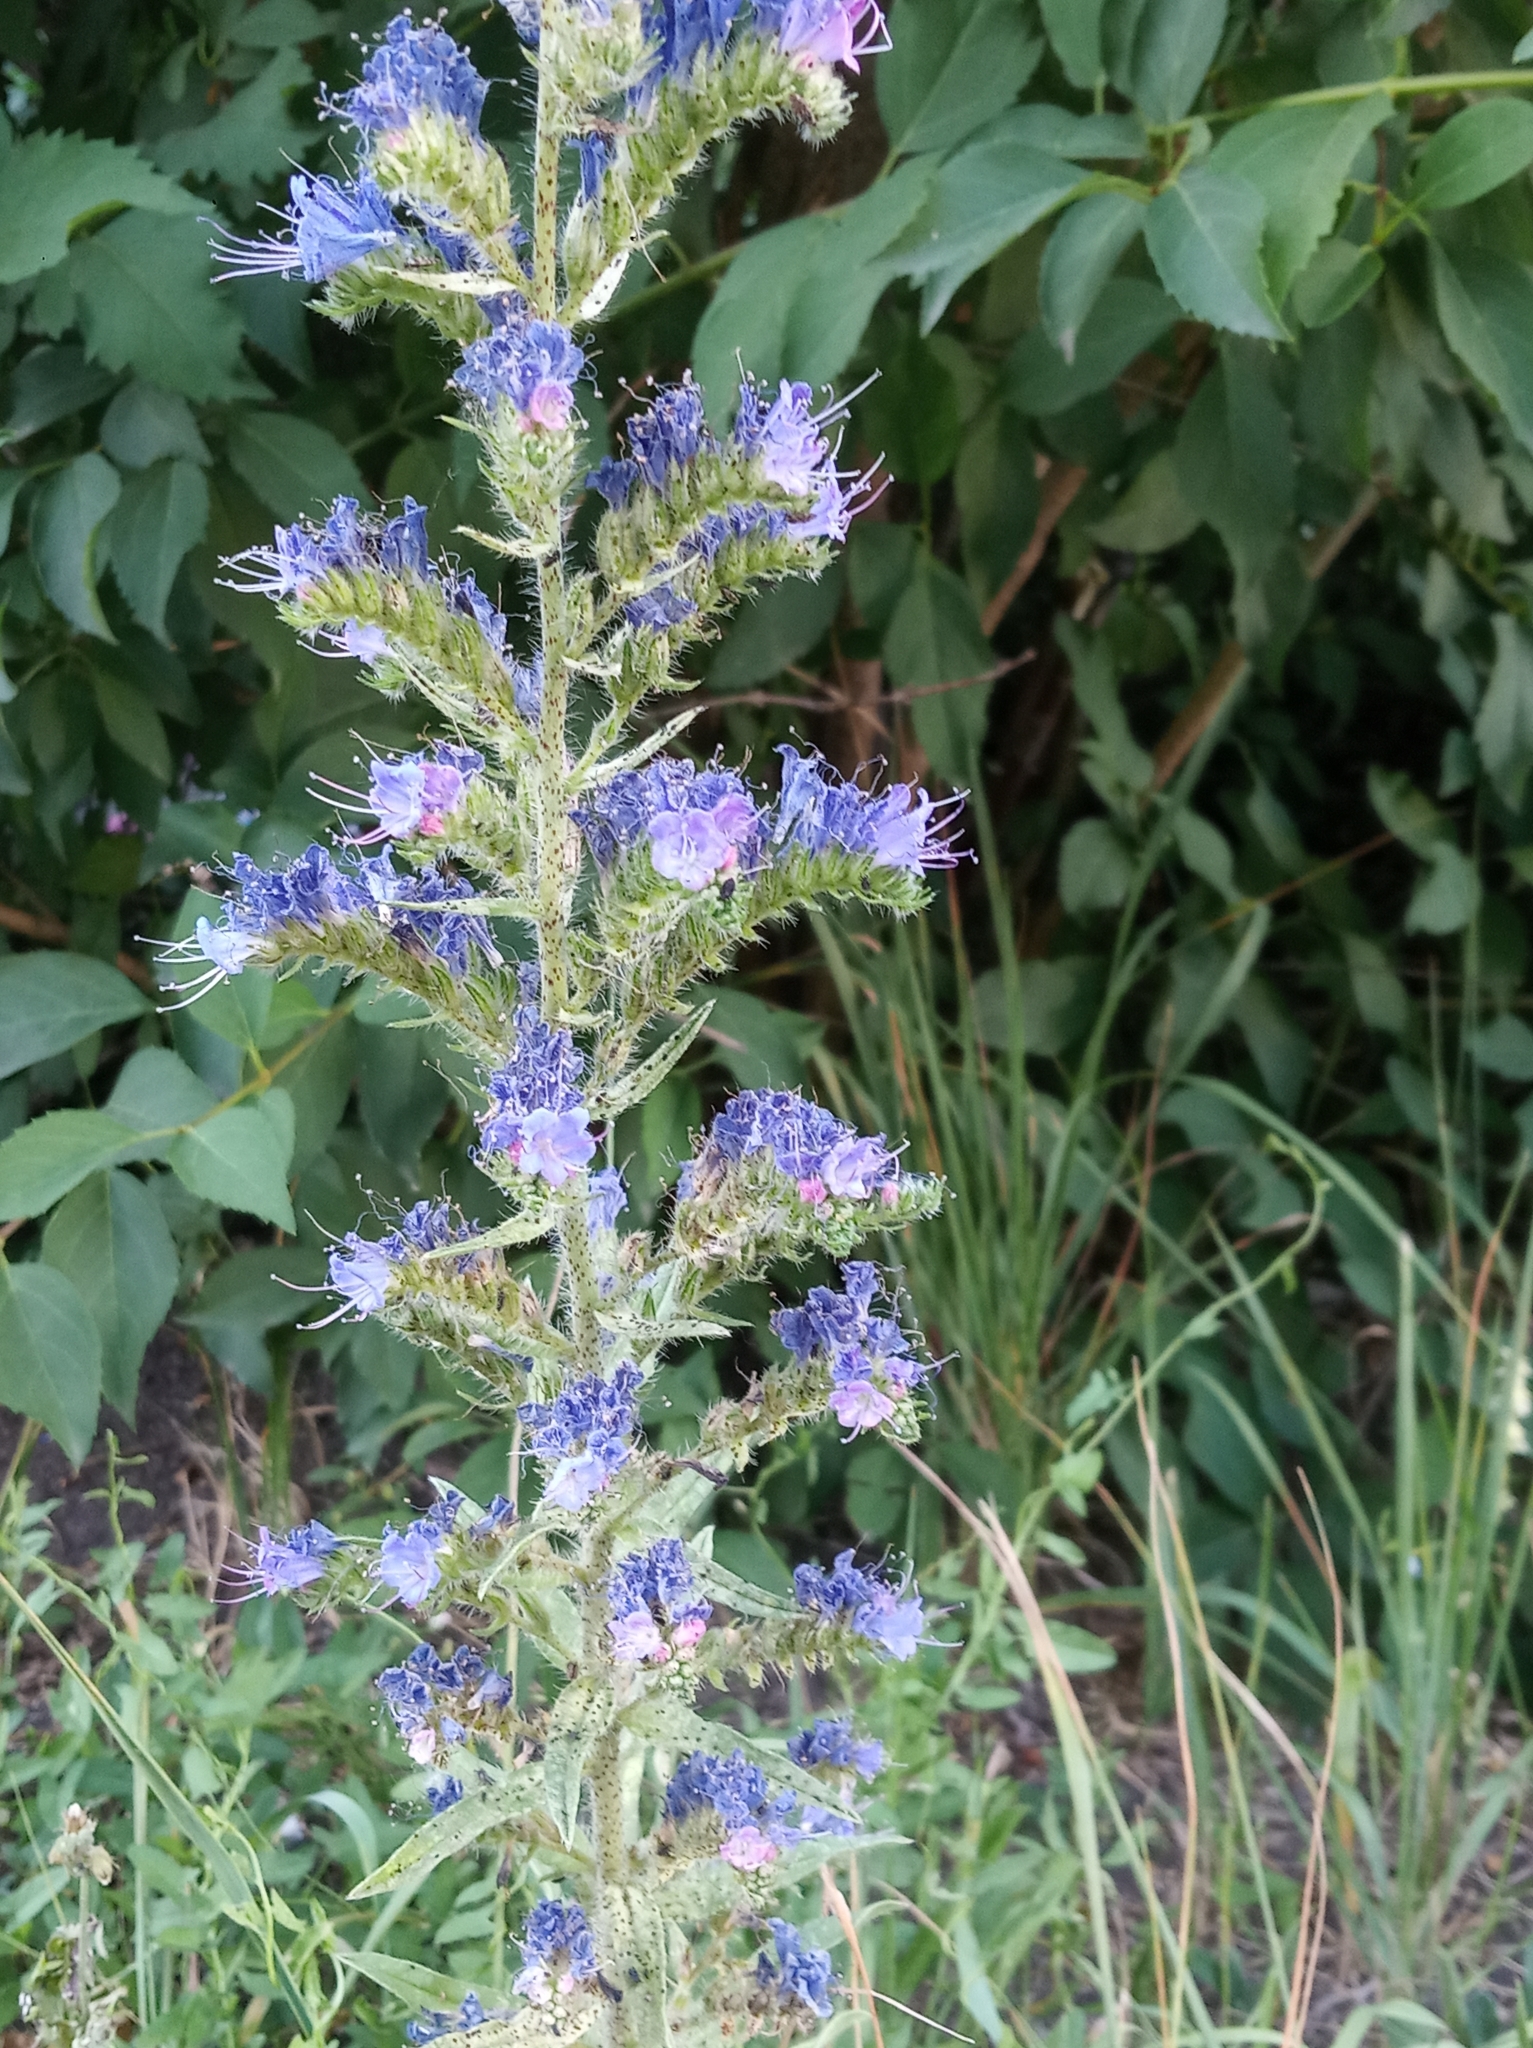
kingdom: Plantae
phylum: Tracheophyta
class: Magnoliopsida
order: Boraginales
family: Boraginaceae
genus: Echium
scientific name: Echium vulgare
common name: Common viper's bugloss
